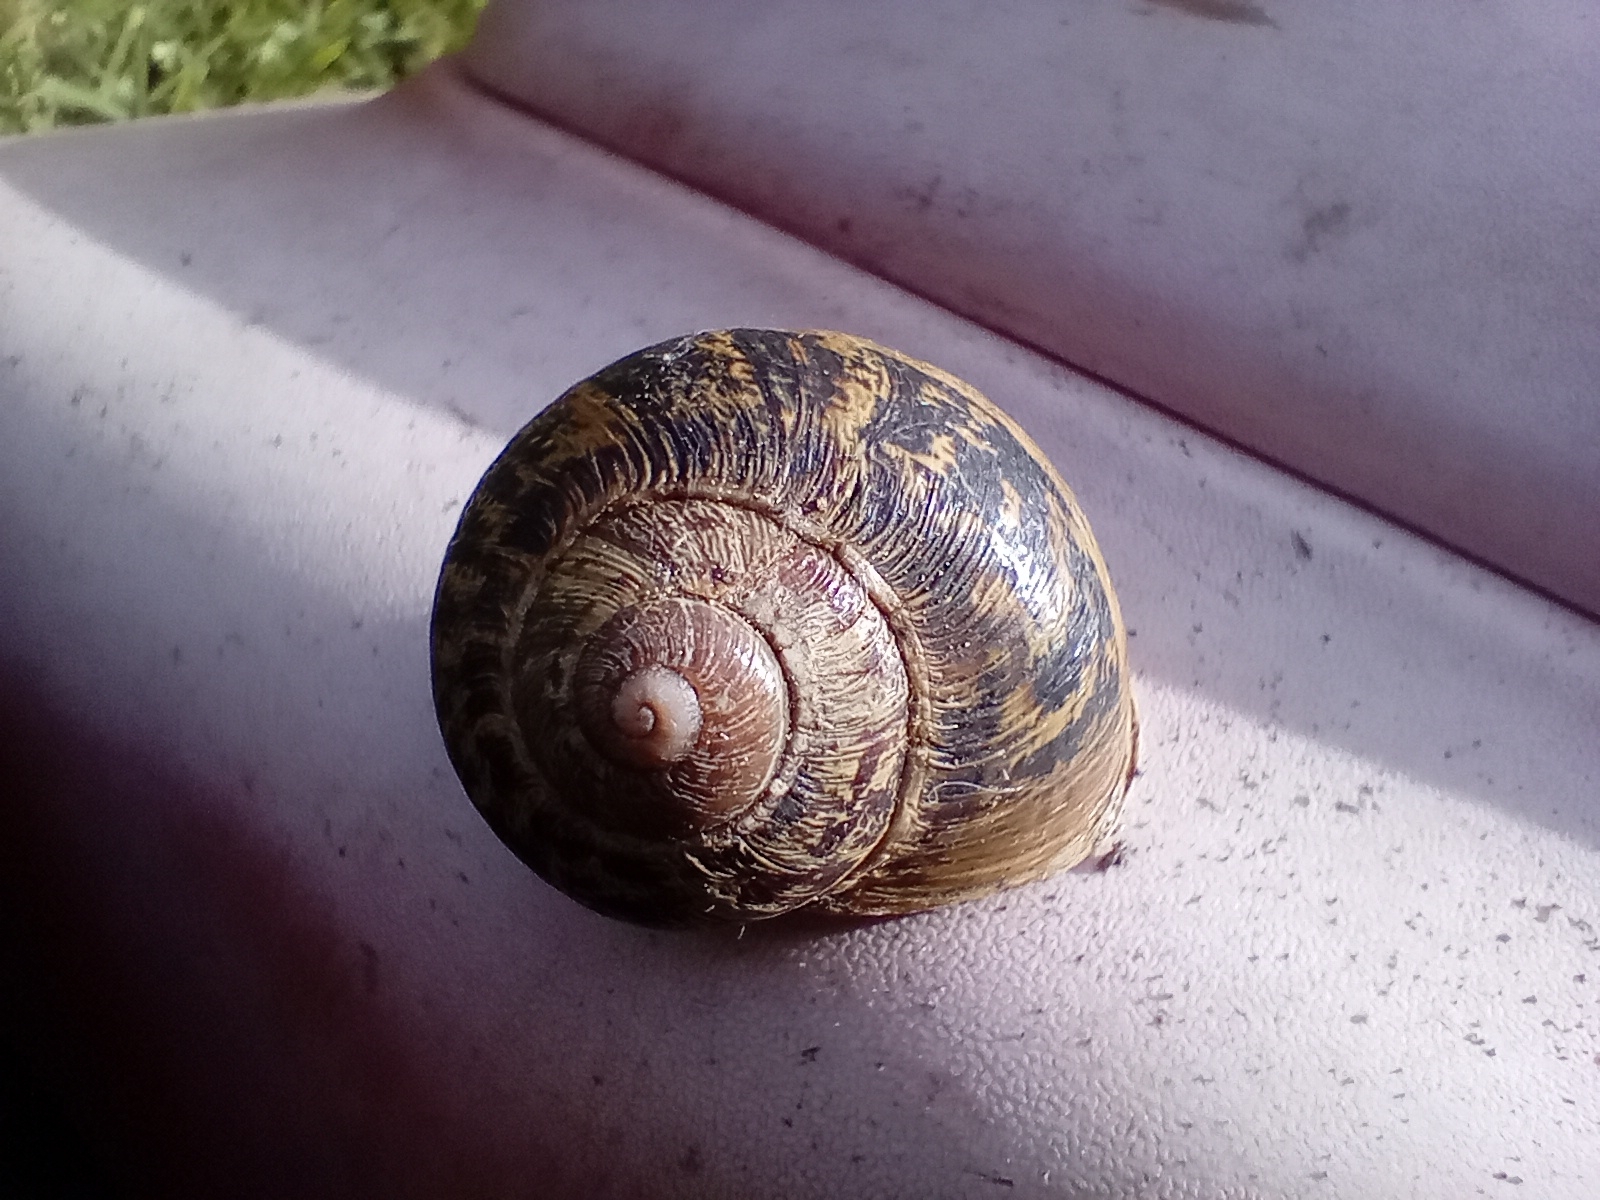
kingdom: Animalia
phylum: Mollusca
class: Gastropoda
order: Stylommatophora
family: Helicidae
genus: Cornu
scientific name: Cornu aspersum
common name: Brown garden snail
